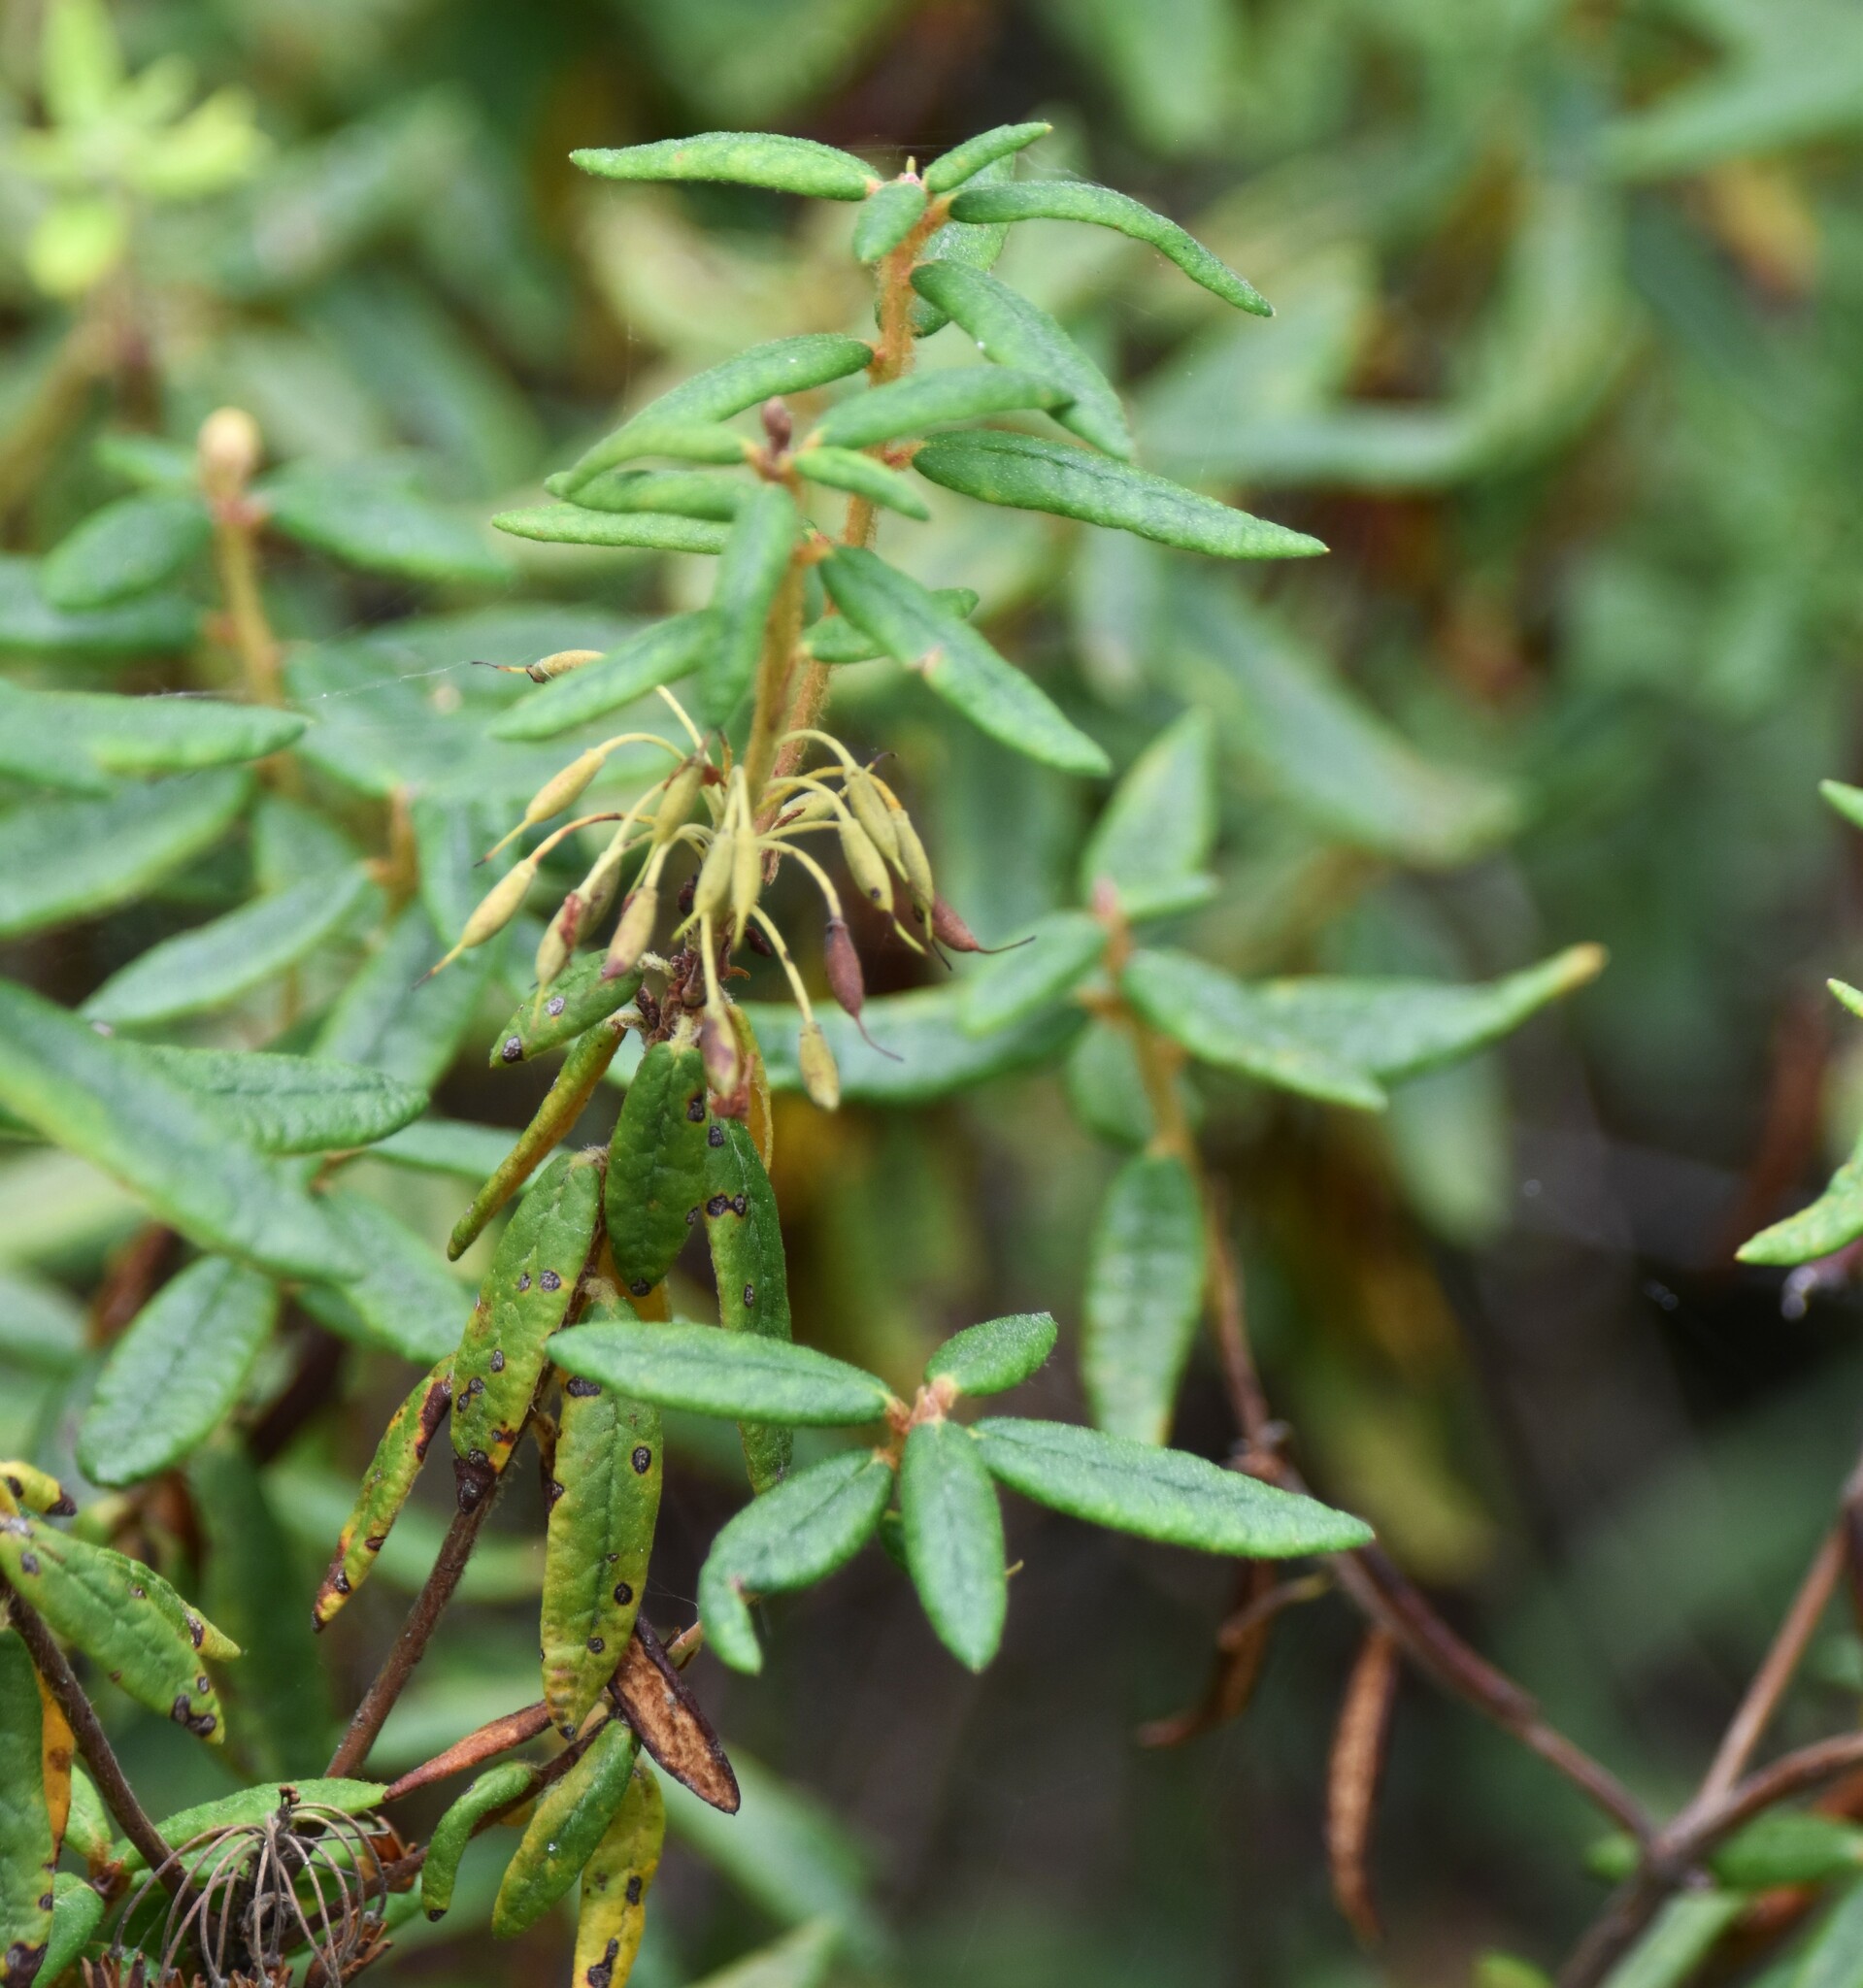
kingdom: Plantae
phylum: Tracheophyta
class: Magnoliopsida
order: Ericales
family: Ericaceae
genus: Rhododendron
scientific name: Rhododendron groenlandicum
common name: Bog labrador tea
